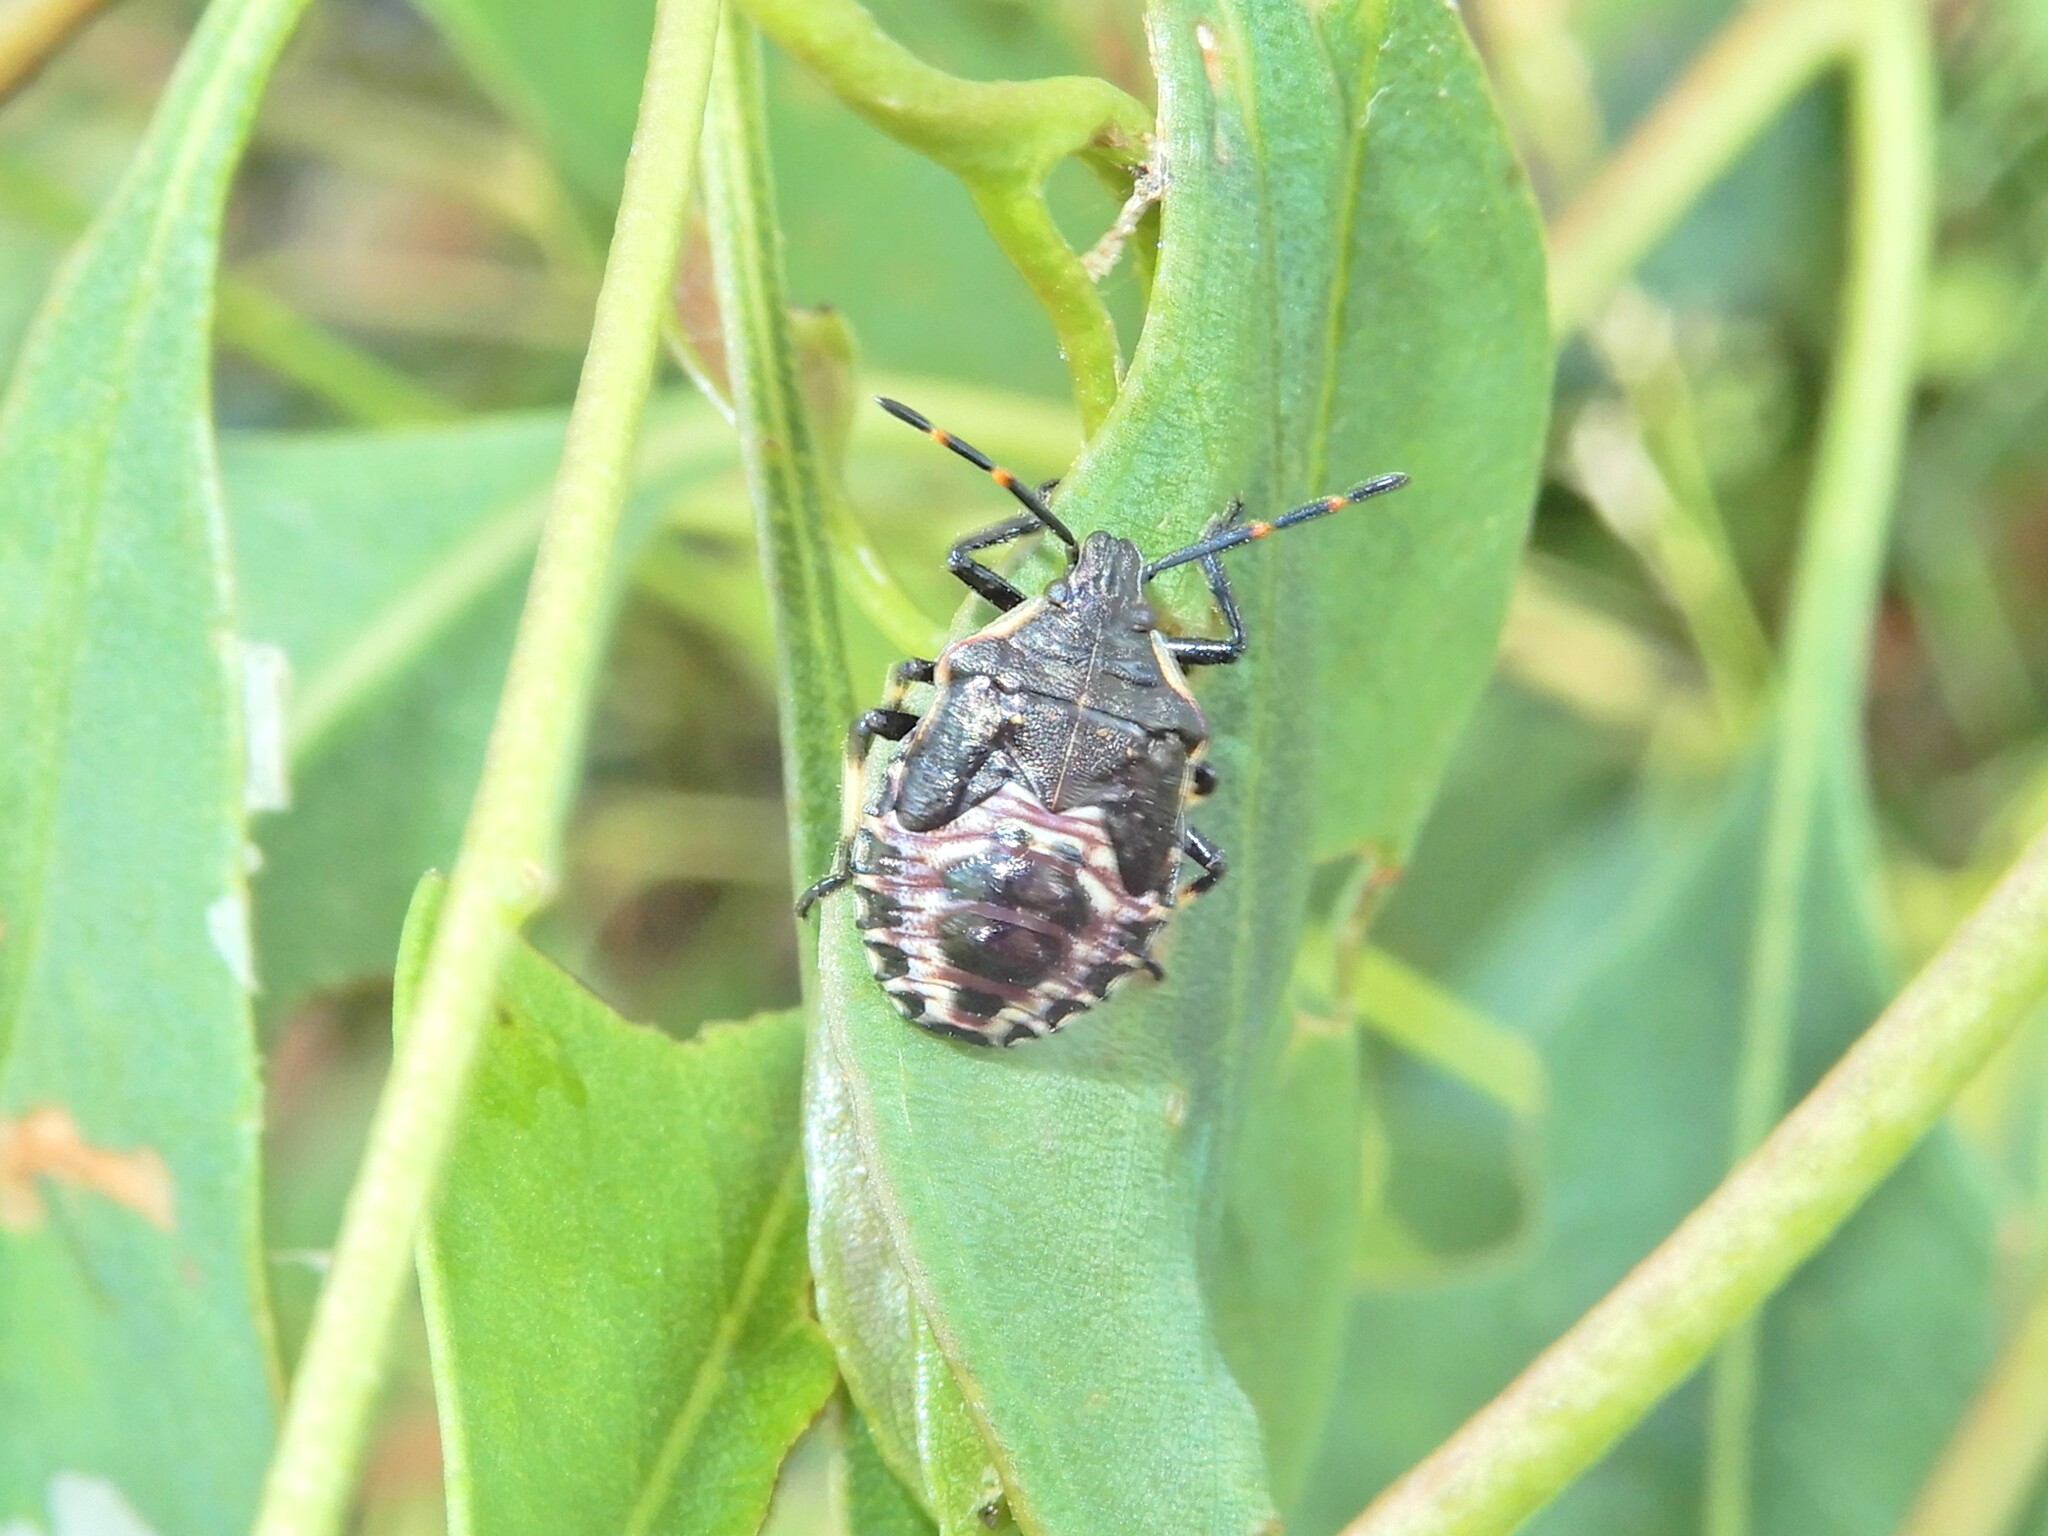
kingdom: Animalia
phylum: Arthropoda
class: Insecta
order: Hemiptera
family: Pentatomidae
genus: Oechalia
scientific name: Oechalia schellenbergii
